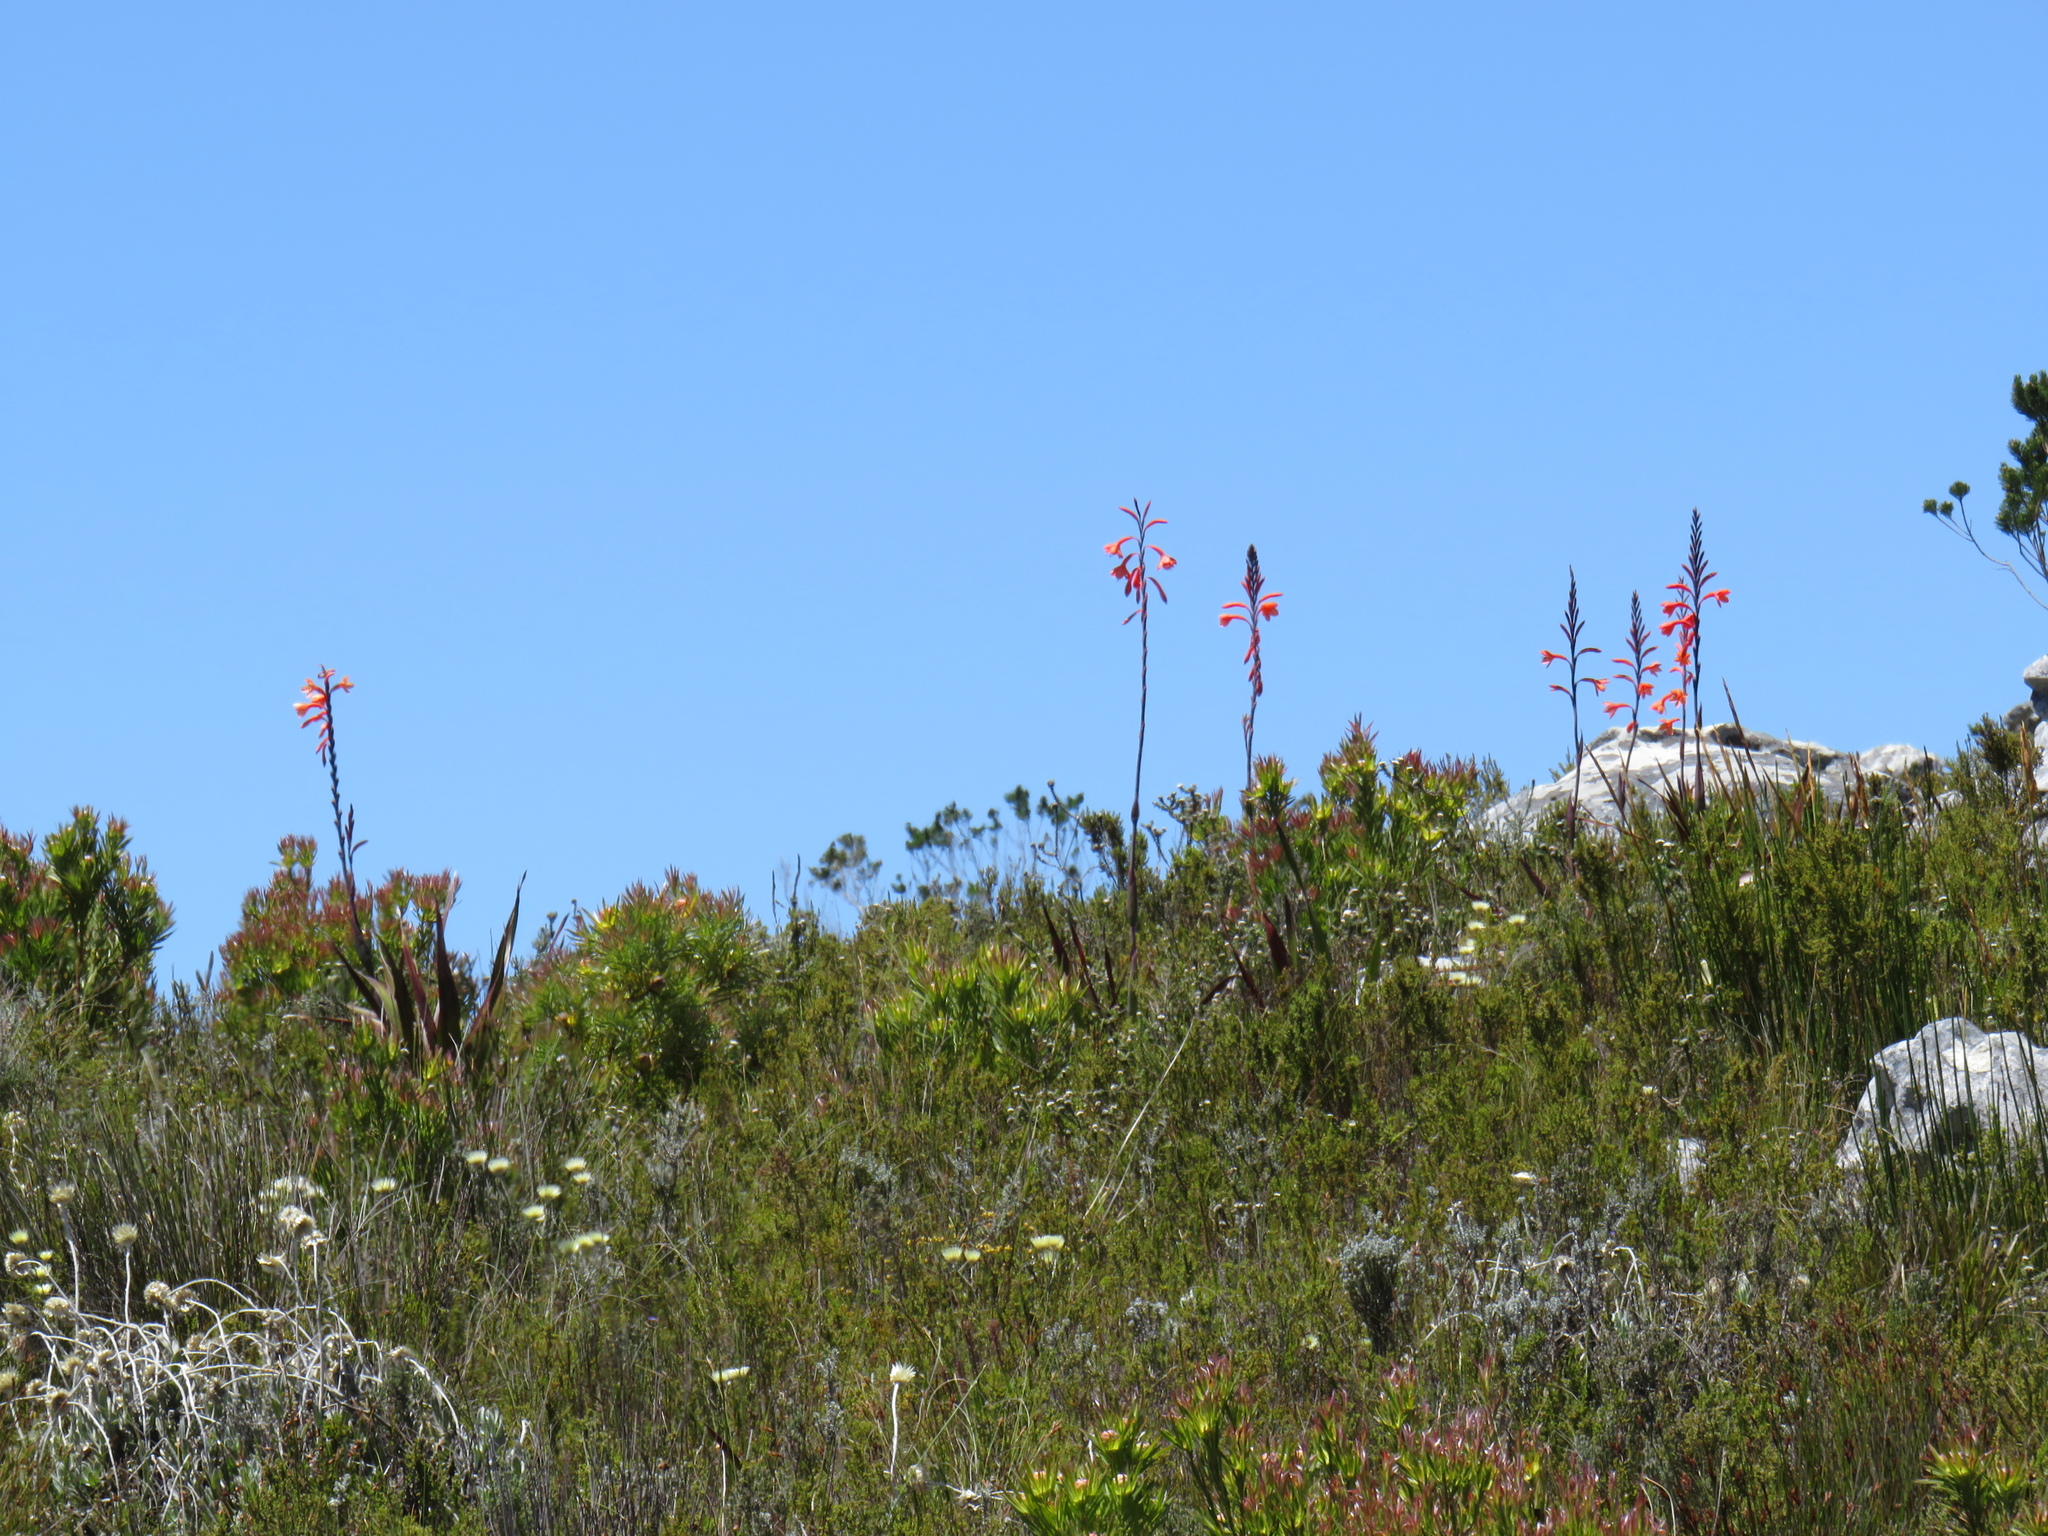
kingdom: Plantae
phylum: Tracheophyta
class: Liliopsida
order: Asparagales
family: Iridaceae
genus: Watsonia
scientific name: Watsonia tabularis
